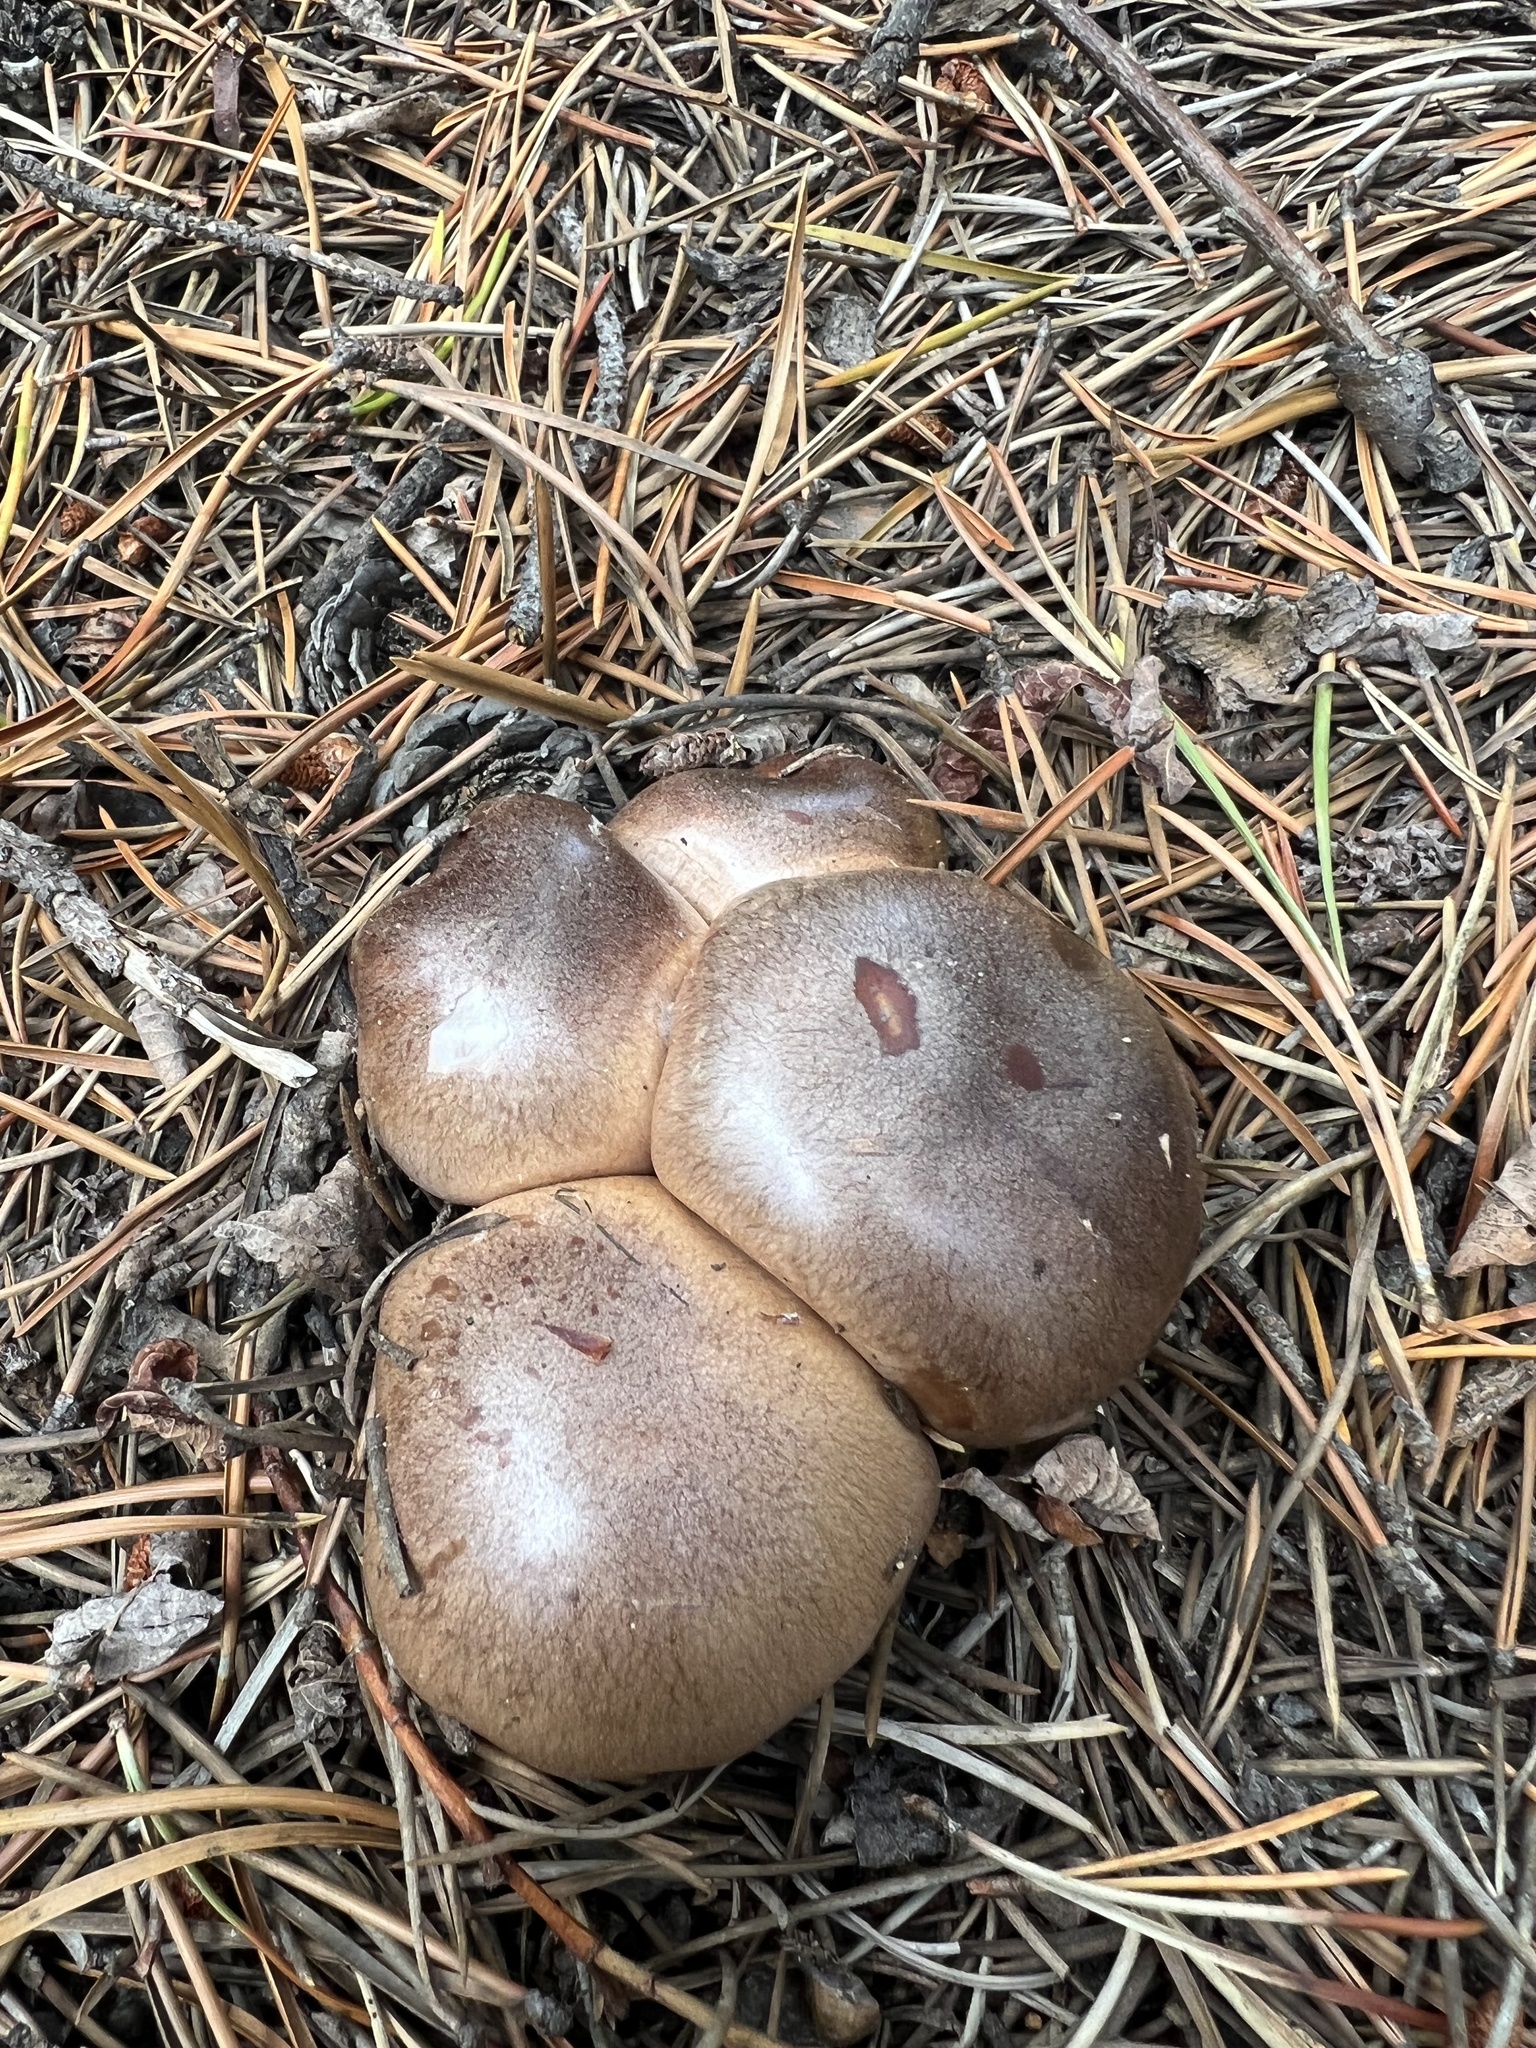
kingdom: Fungi
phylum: Basidiomycota
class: Agaricomycetes
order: Agaricales
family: Tricholomataceae
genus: Collybia
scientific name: Collybia
